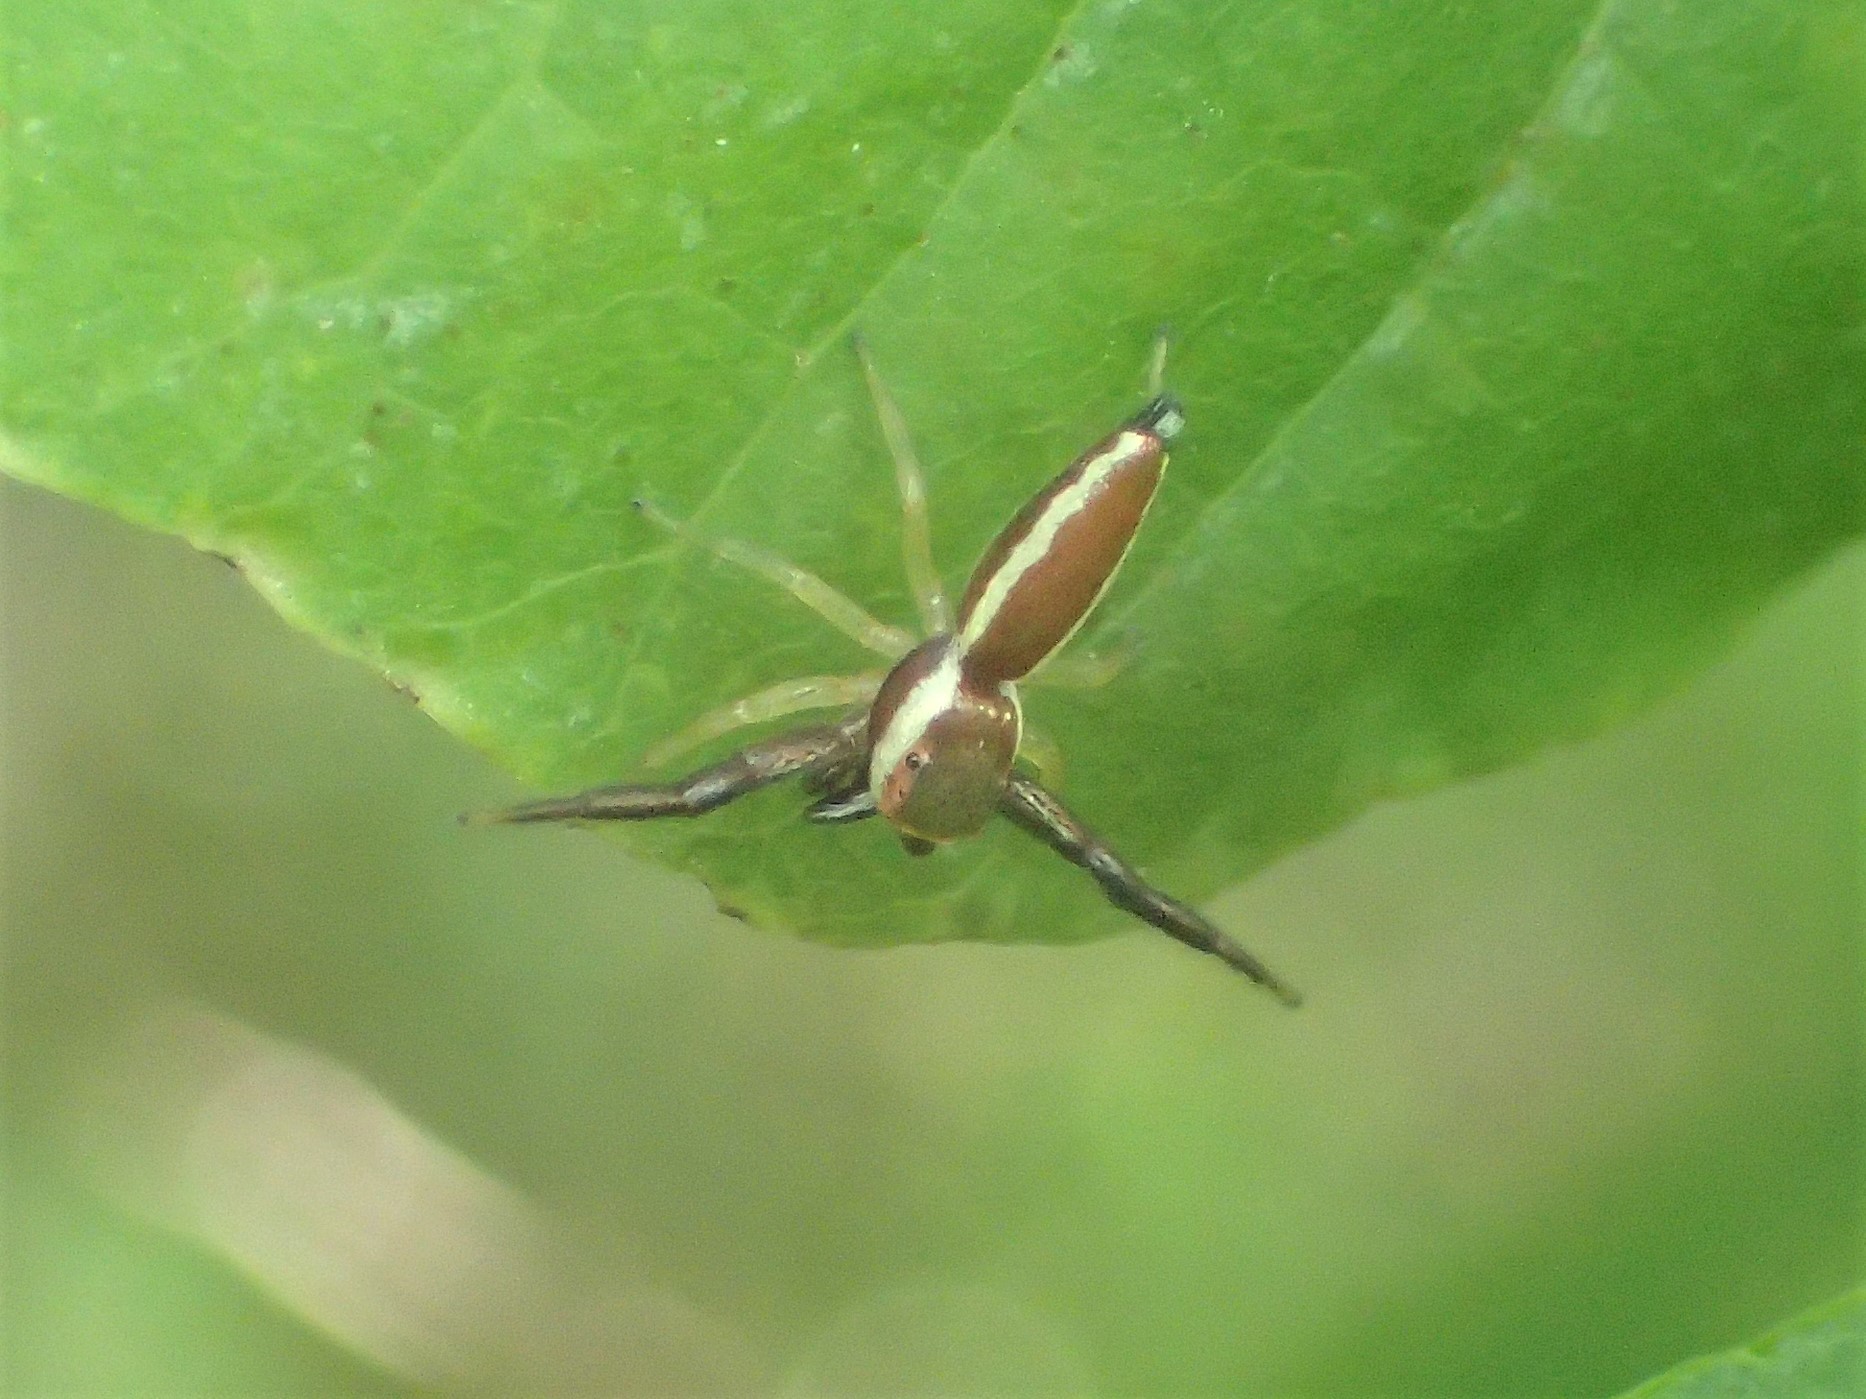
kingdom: Animalia
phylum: Arthropoda
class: Arachnida
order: Araneae
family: Salticidae
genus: Hentzia
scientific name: Hentzia palmarum
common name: Common hentz jumping spider
